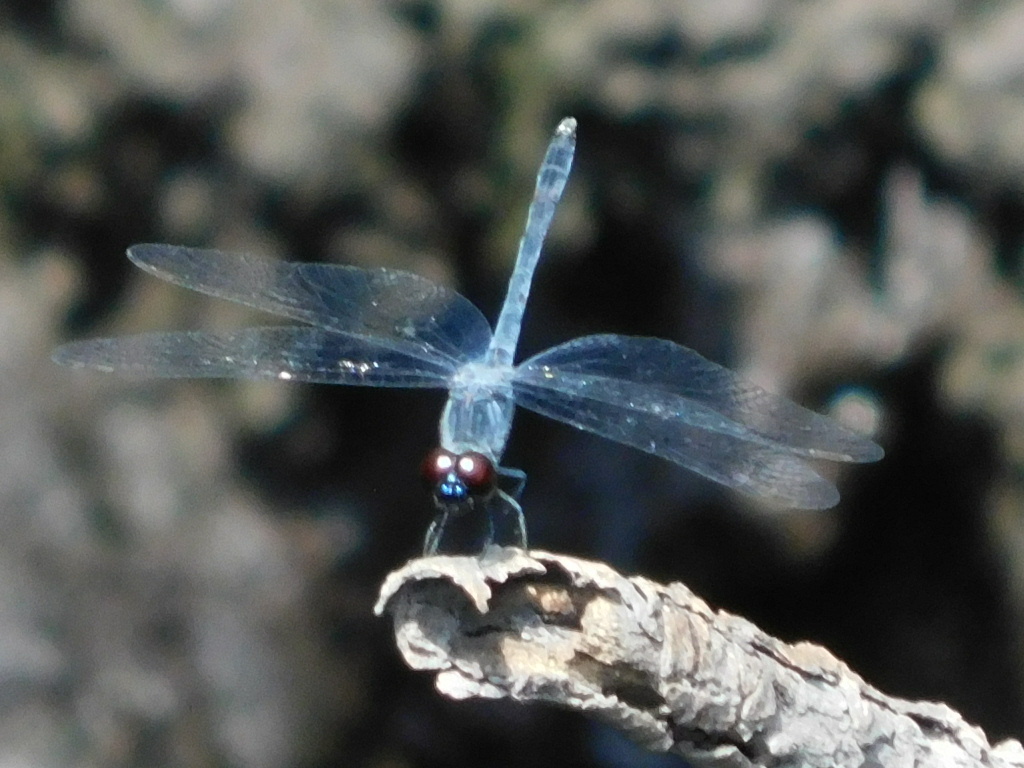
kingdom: Animalia
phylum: Arthropoda
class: Insecta
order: Odonata
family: Libellulidae
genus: Erythrodiplax
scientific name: Erythrodiplax berenice
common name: Seaside dragonlet
